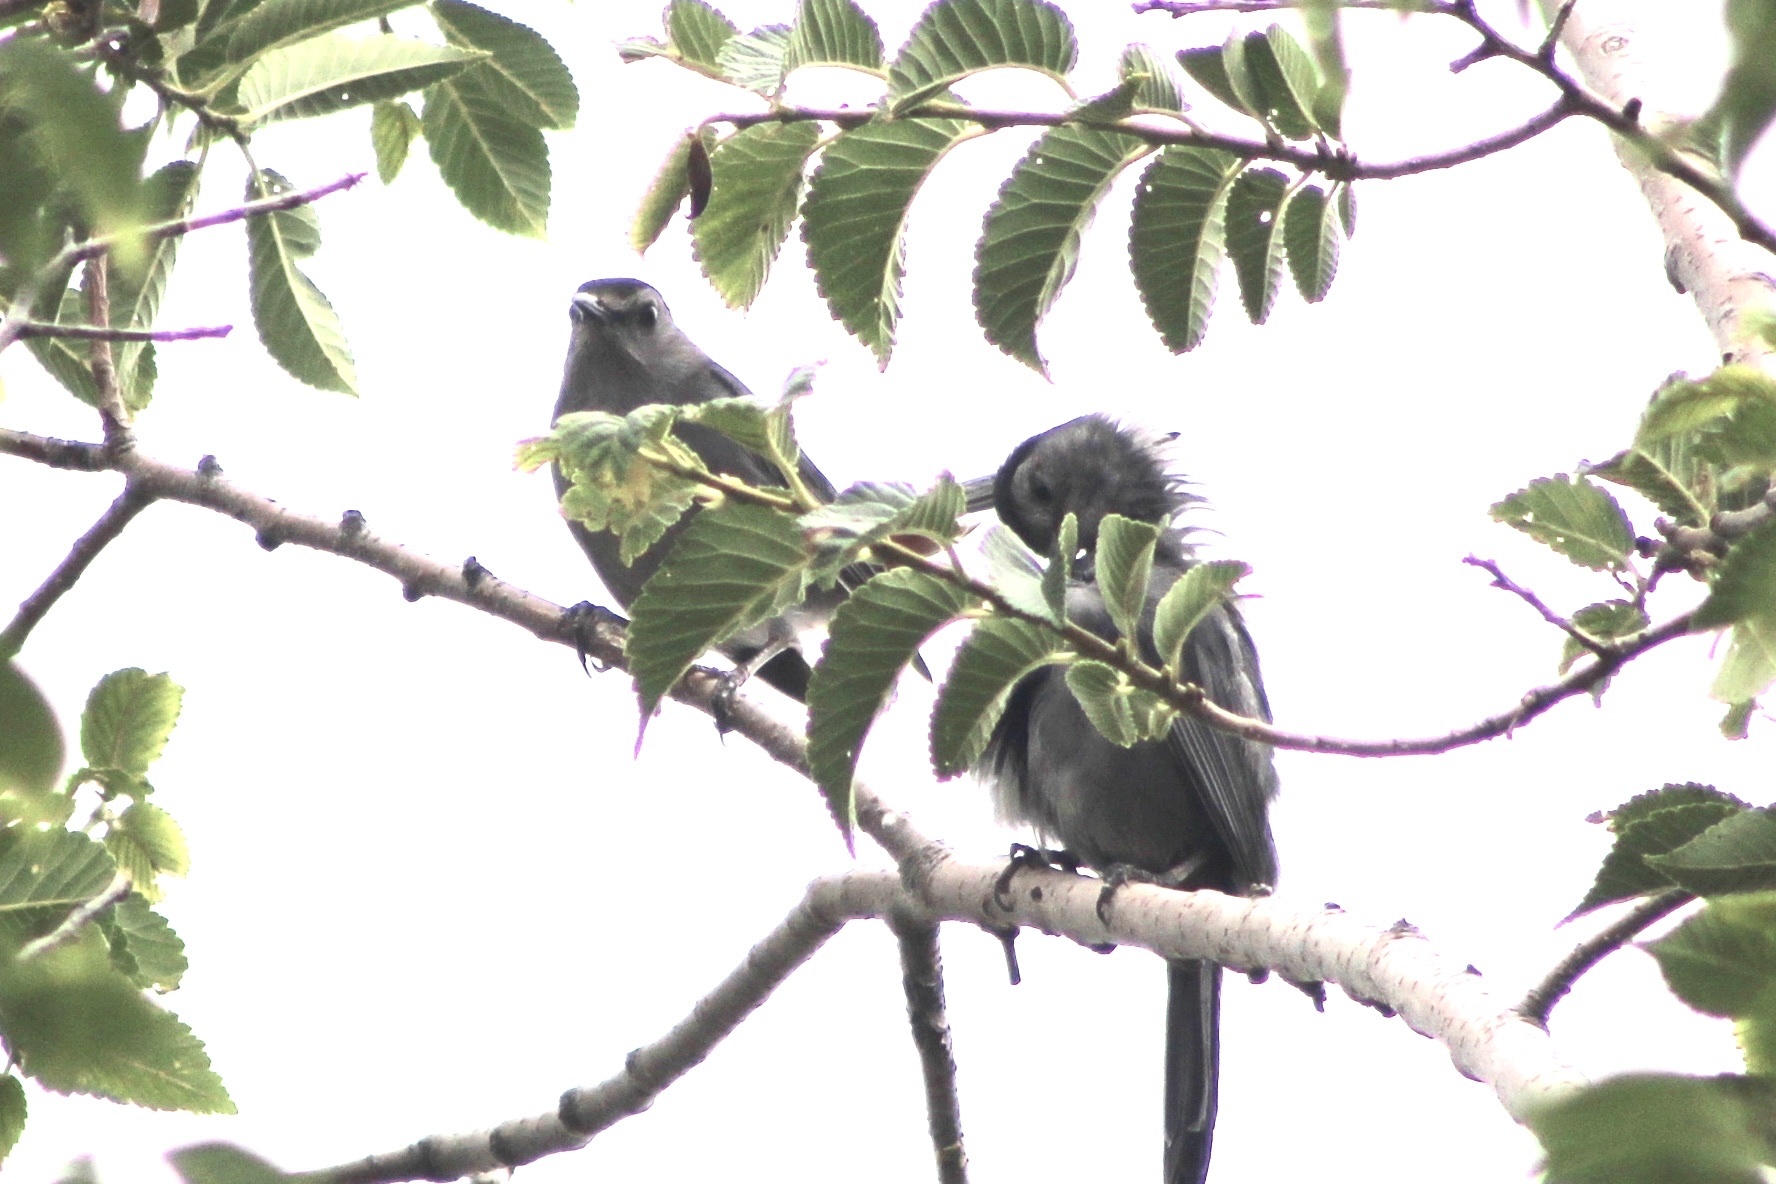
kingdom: Animalia
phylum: Chordata
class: Aves
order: Passeriformes
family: Mimidae
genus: Dumetella
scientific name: Dumetella carolinensis
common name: Gray catbird
